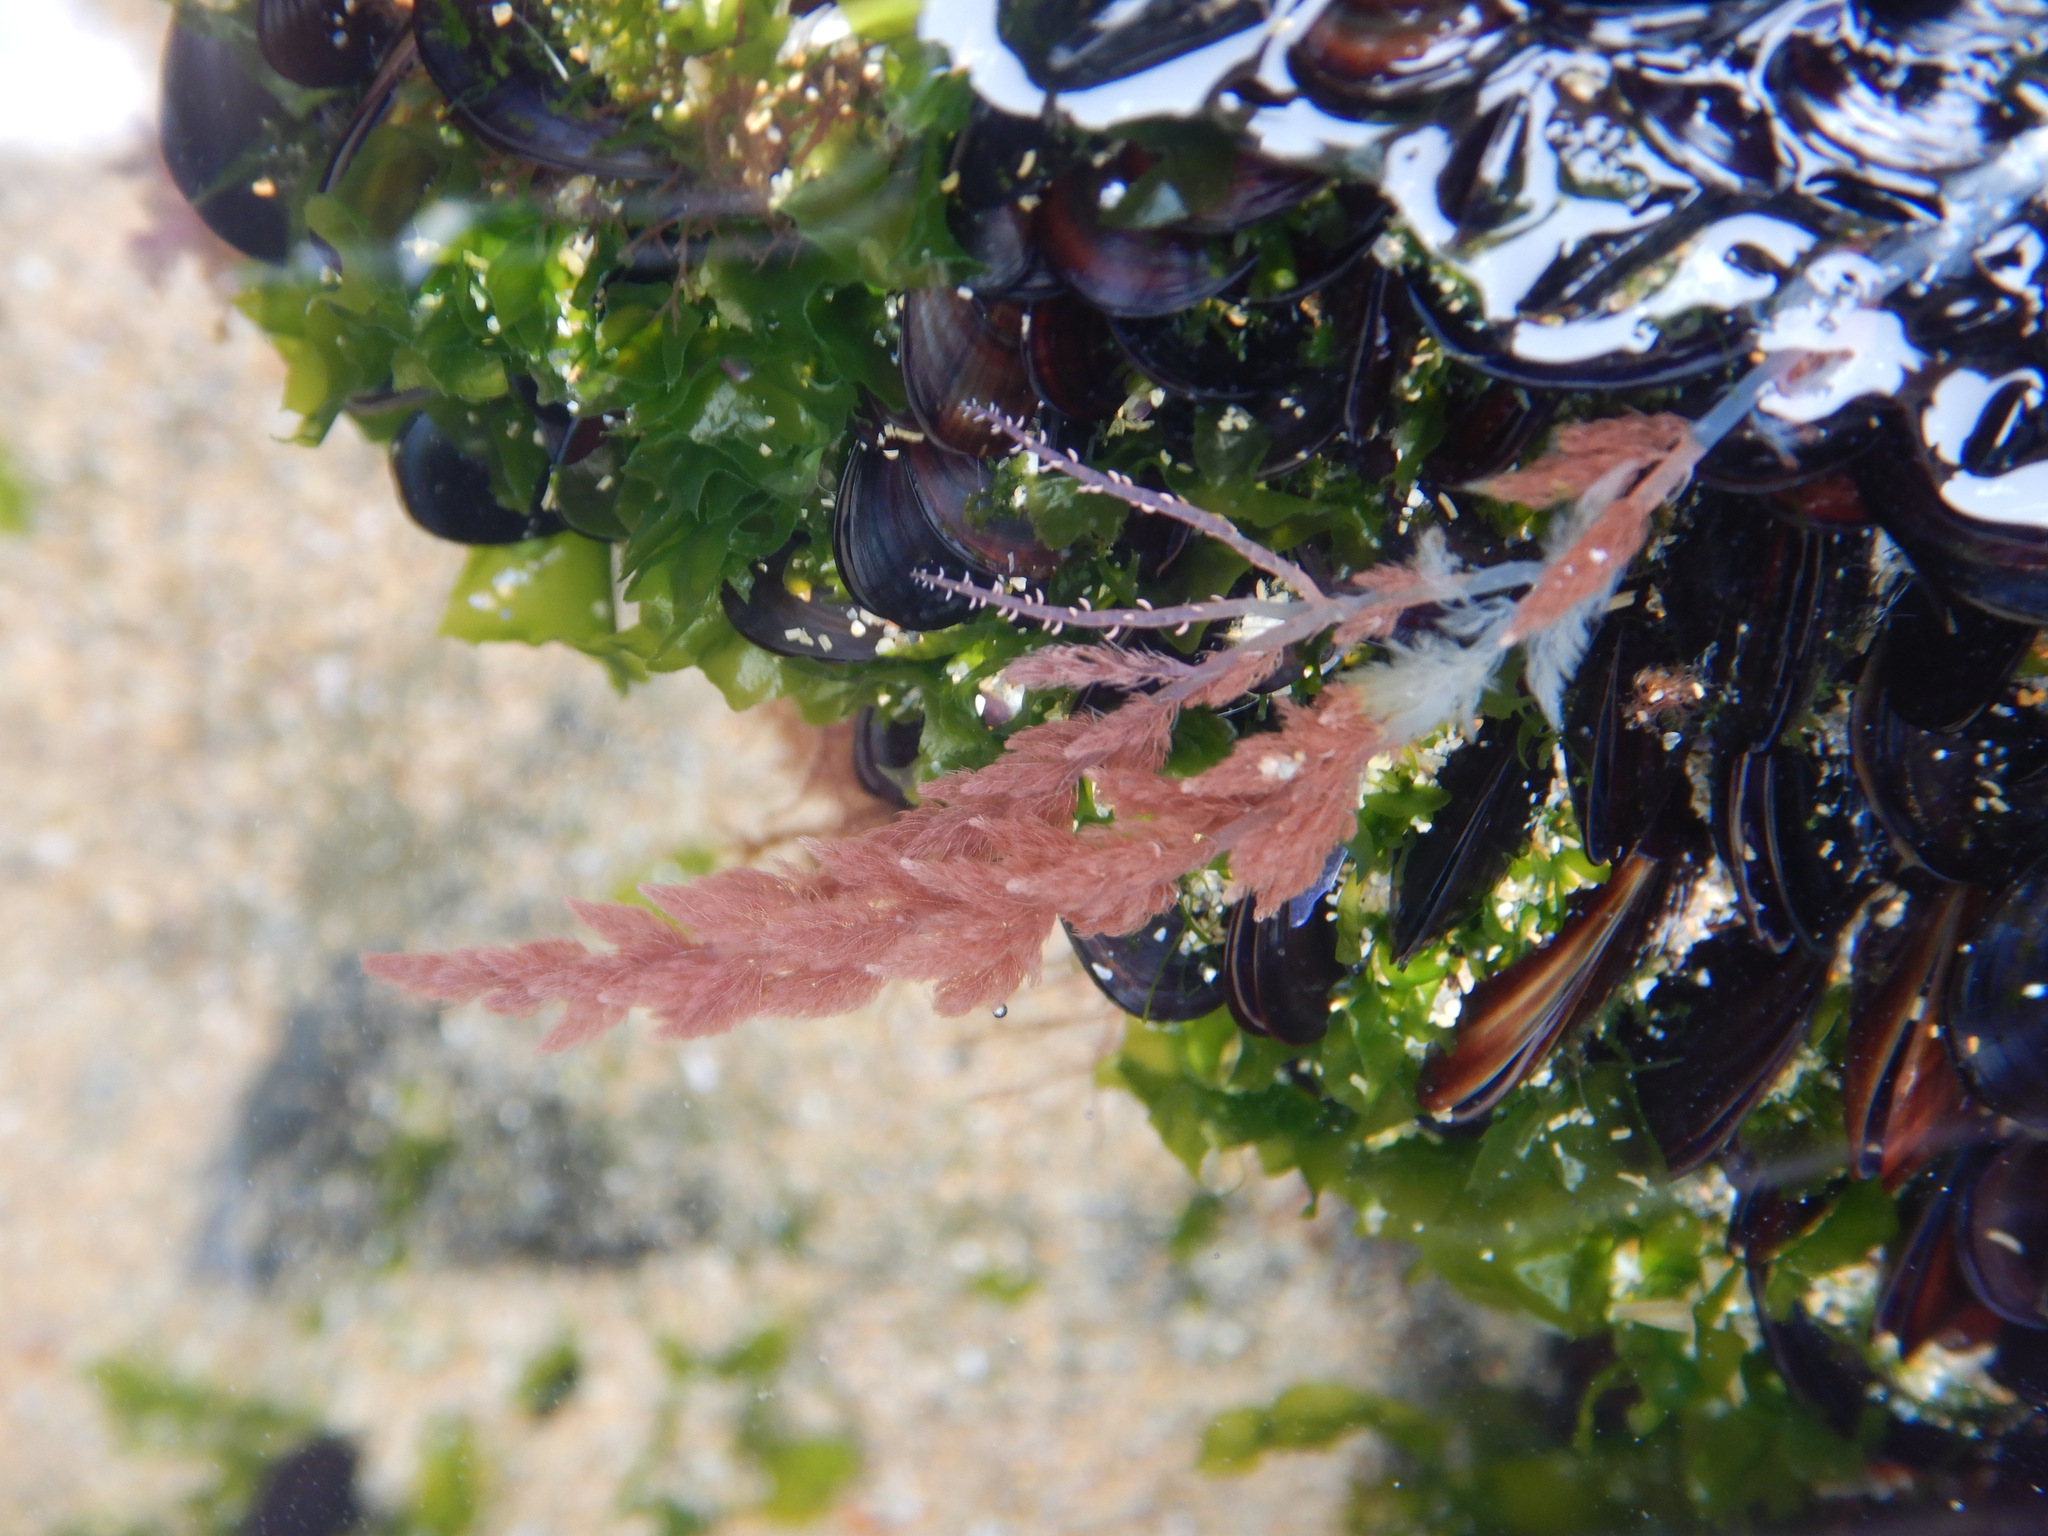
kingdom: Plantae
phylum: Rhodophyta
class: Florideophyceae
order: Bonnemaisoniales
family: Bonnemaisoniaceae
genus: Asparagopsis
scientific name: Asparagopsis armata
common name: Harpoon weed
